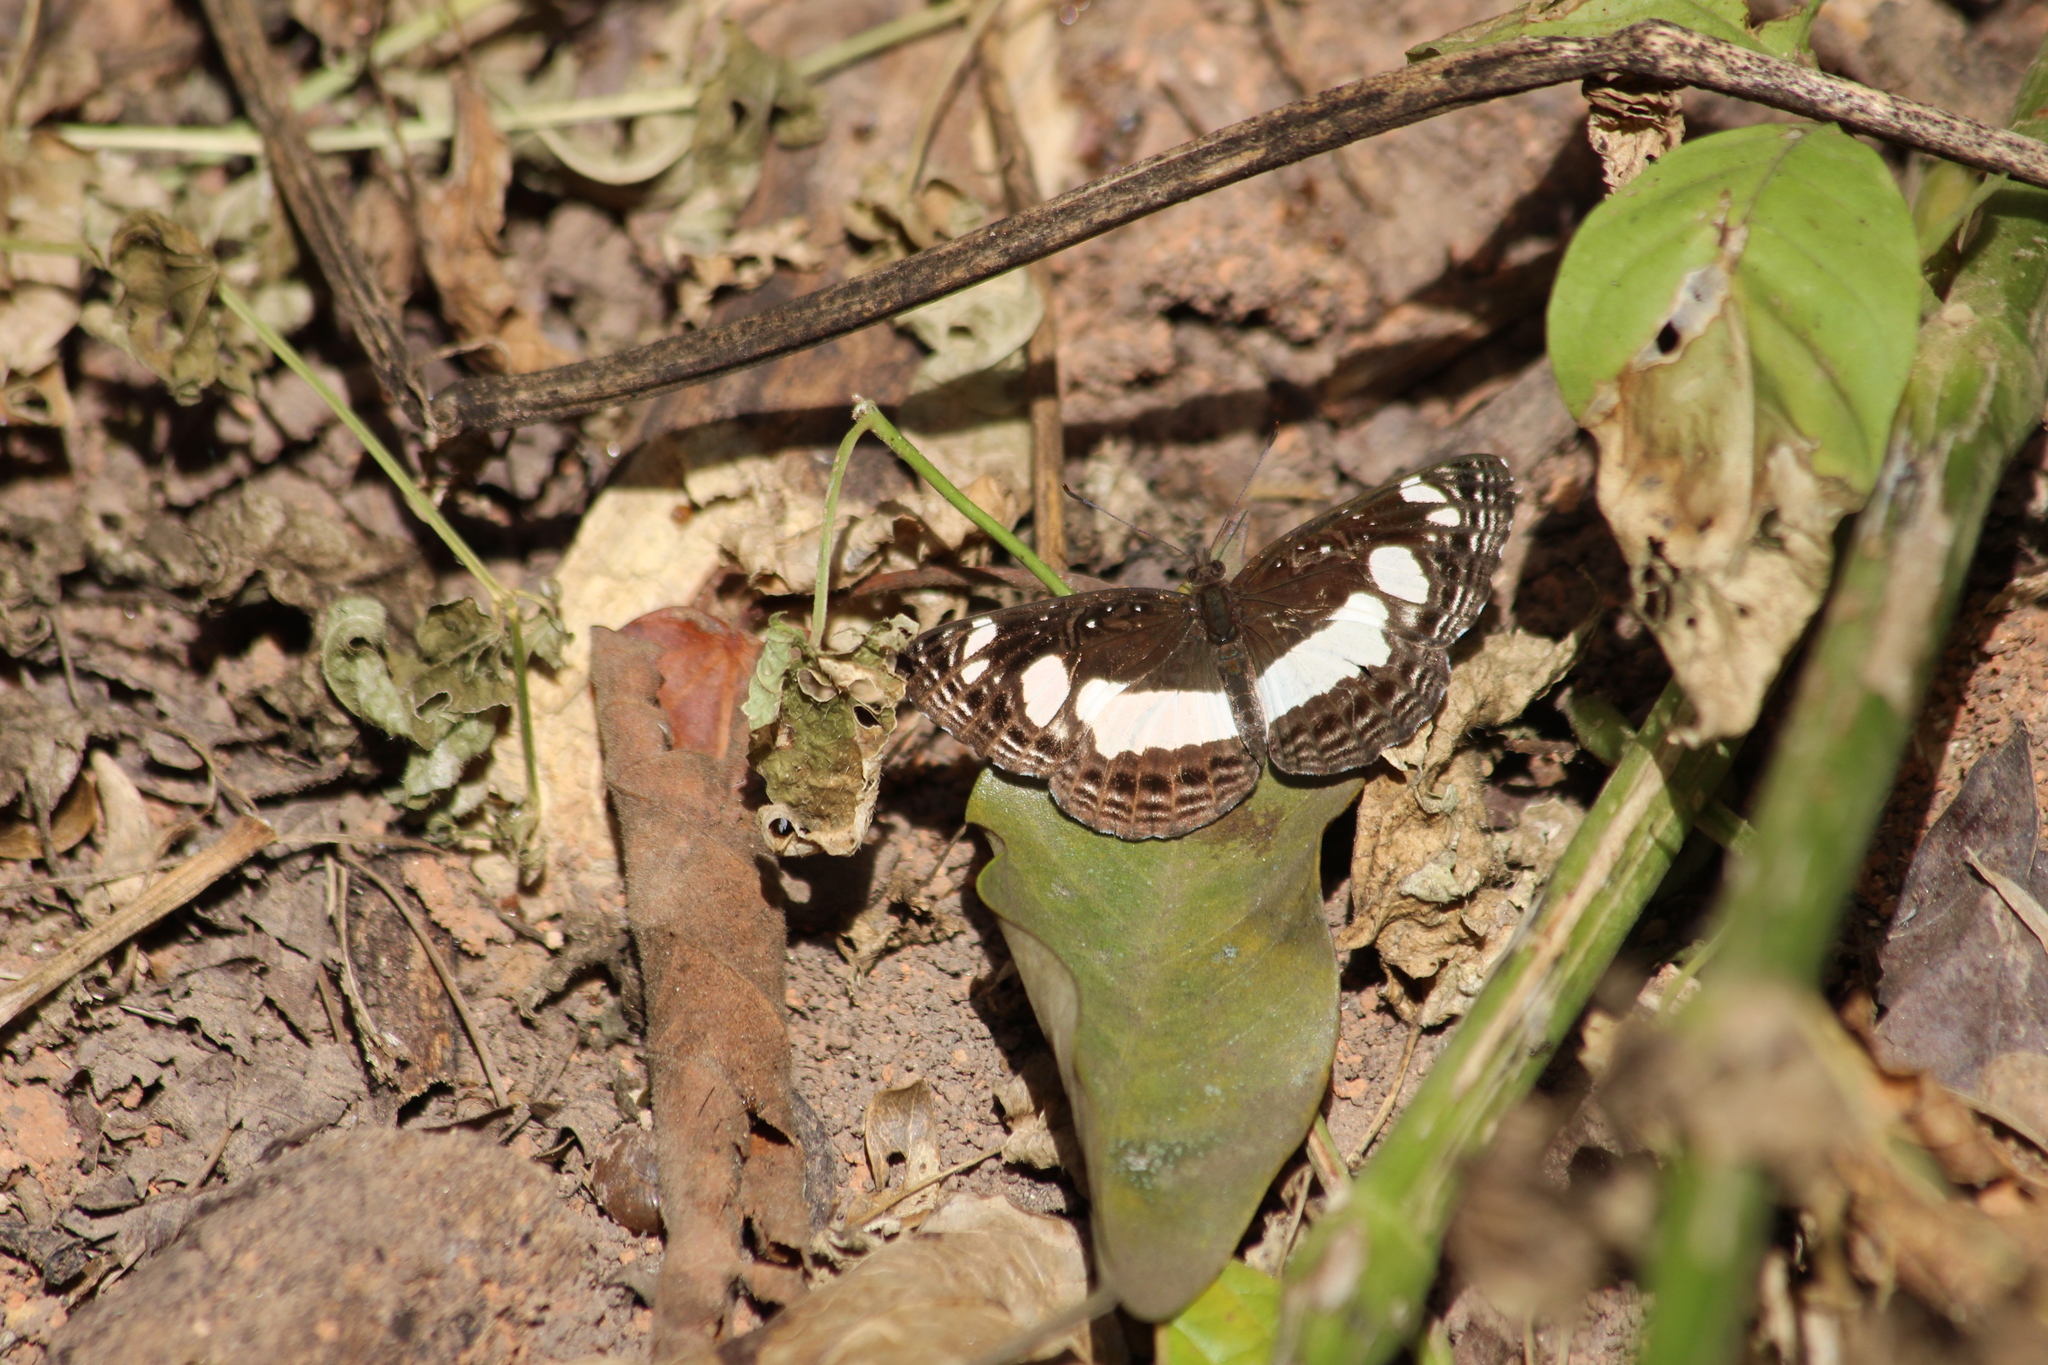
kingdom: Animalia
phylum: Arthropoda
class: Insecta
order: Lepidoptera
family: Nymphalidae
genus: Neptis
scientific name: Neptis saclava
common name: Small spotted sailor
